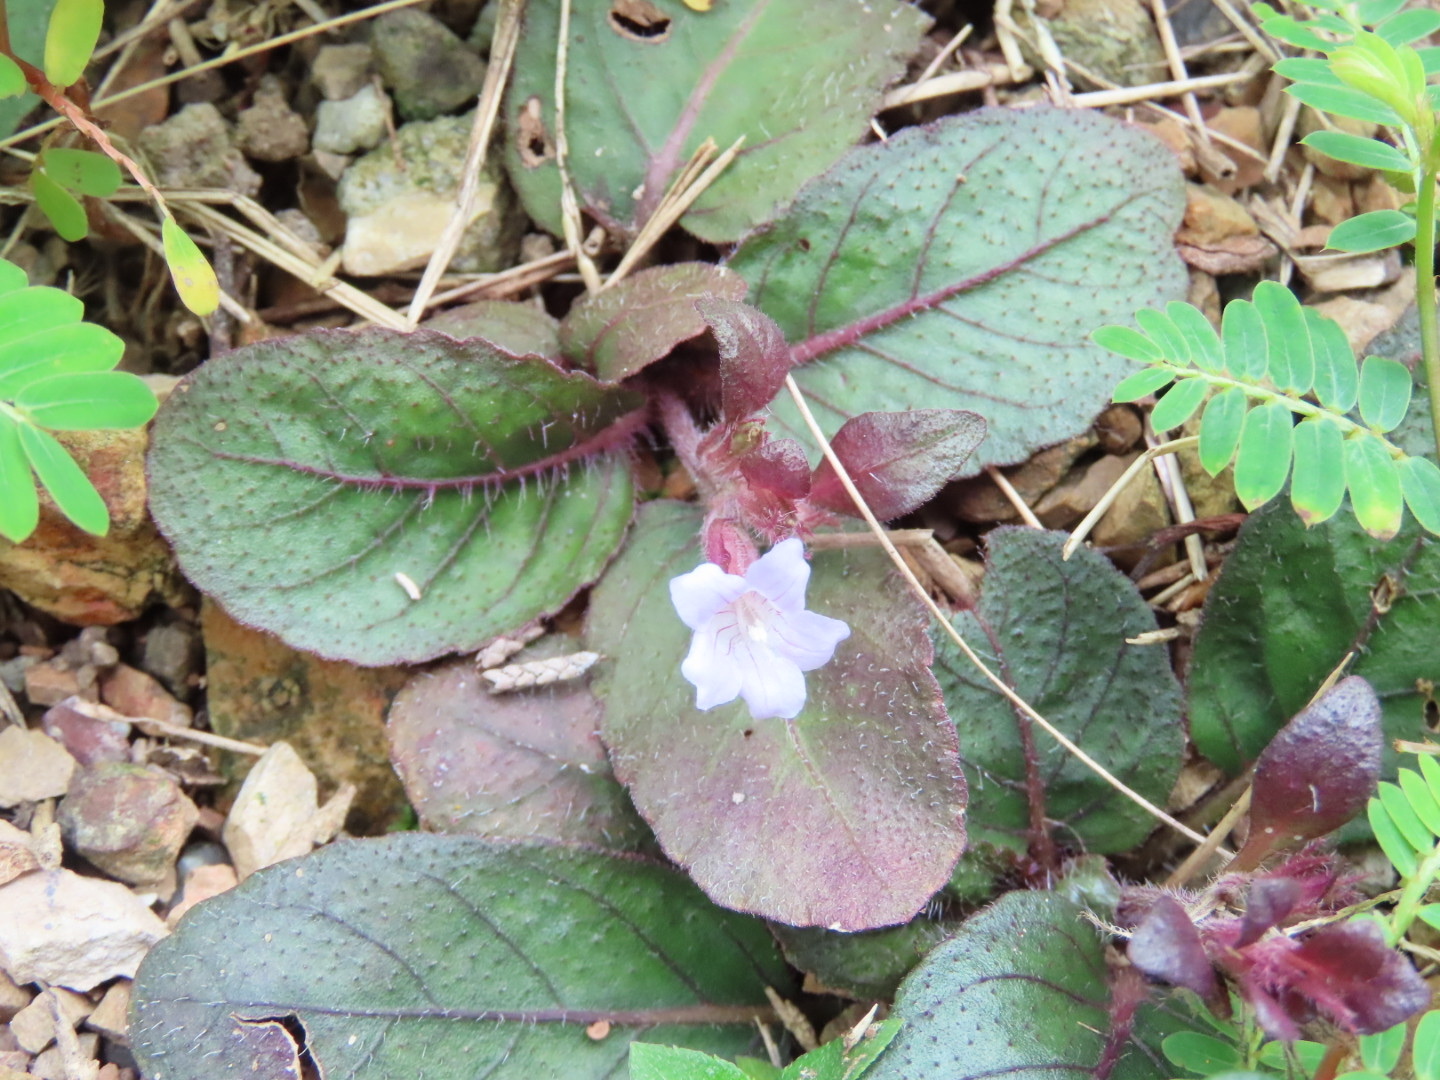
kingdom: Plantae
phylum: Tracheophyta
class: Magnoliopsida
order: Lamiales
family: Acanthaceae
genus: Strobilanthes
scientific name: Strobilanthes reptans
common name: Acanthaceae
